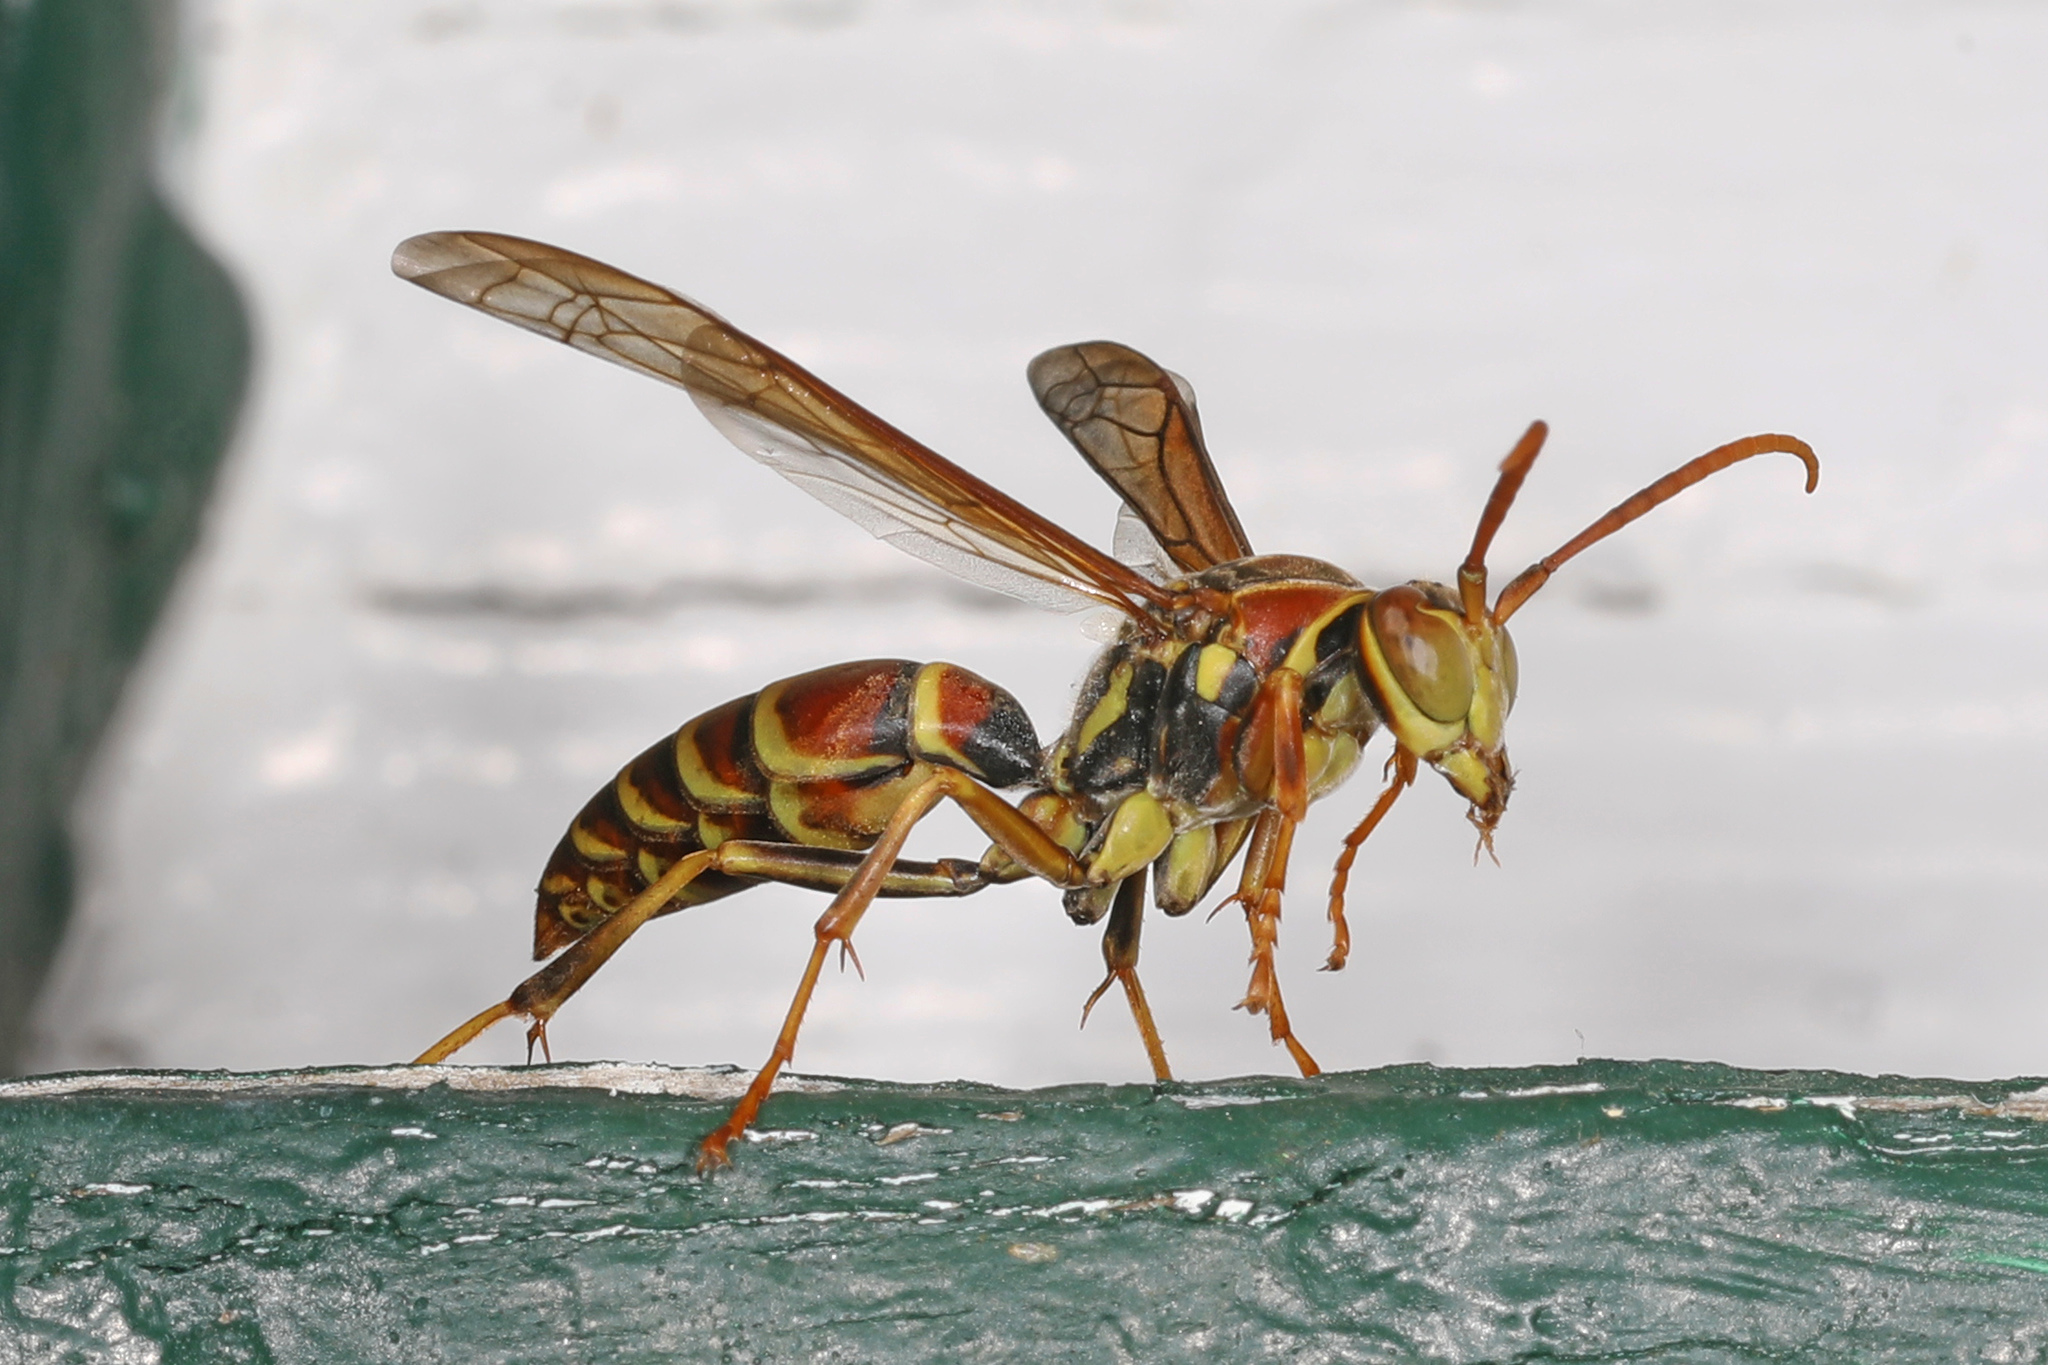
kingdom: Animalia
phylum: Arthropoda
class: Insecta
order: Hymenoptera
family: Eumenidae
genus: Polistes
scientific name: Polistes exclamans
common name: Paper wasp
